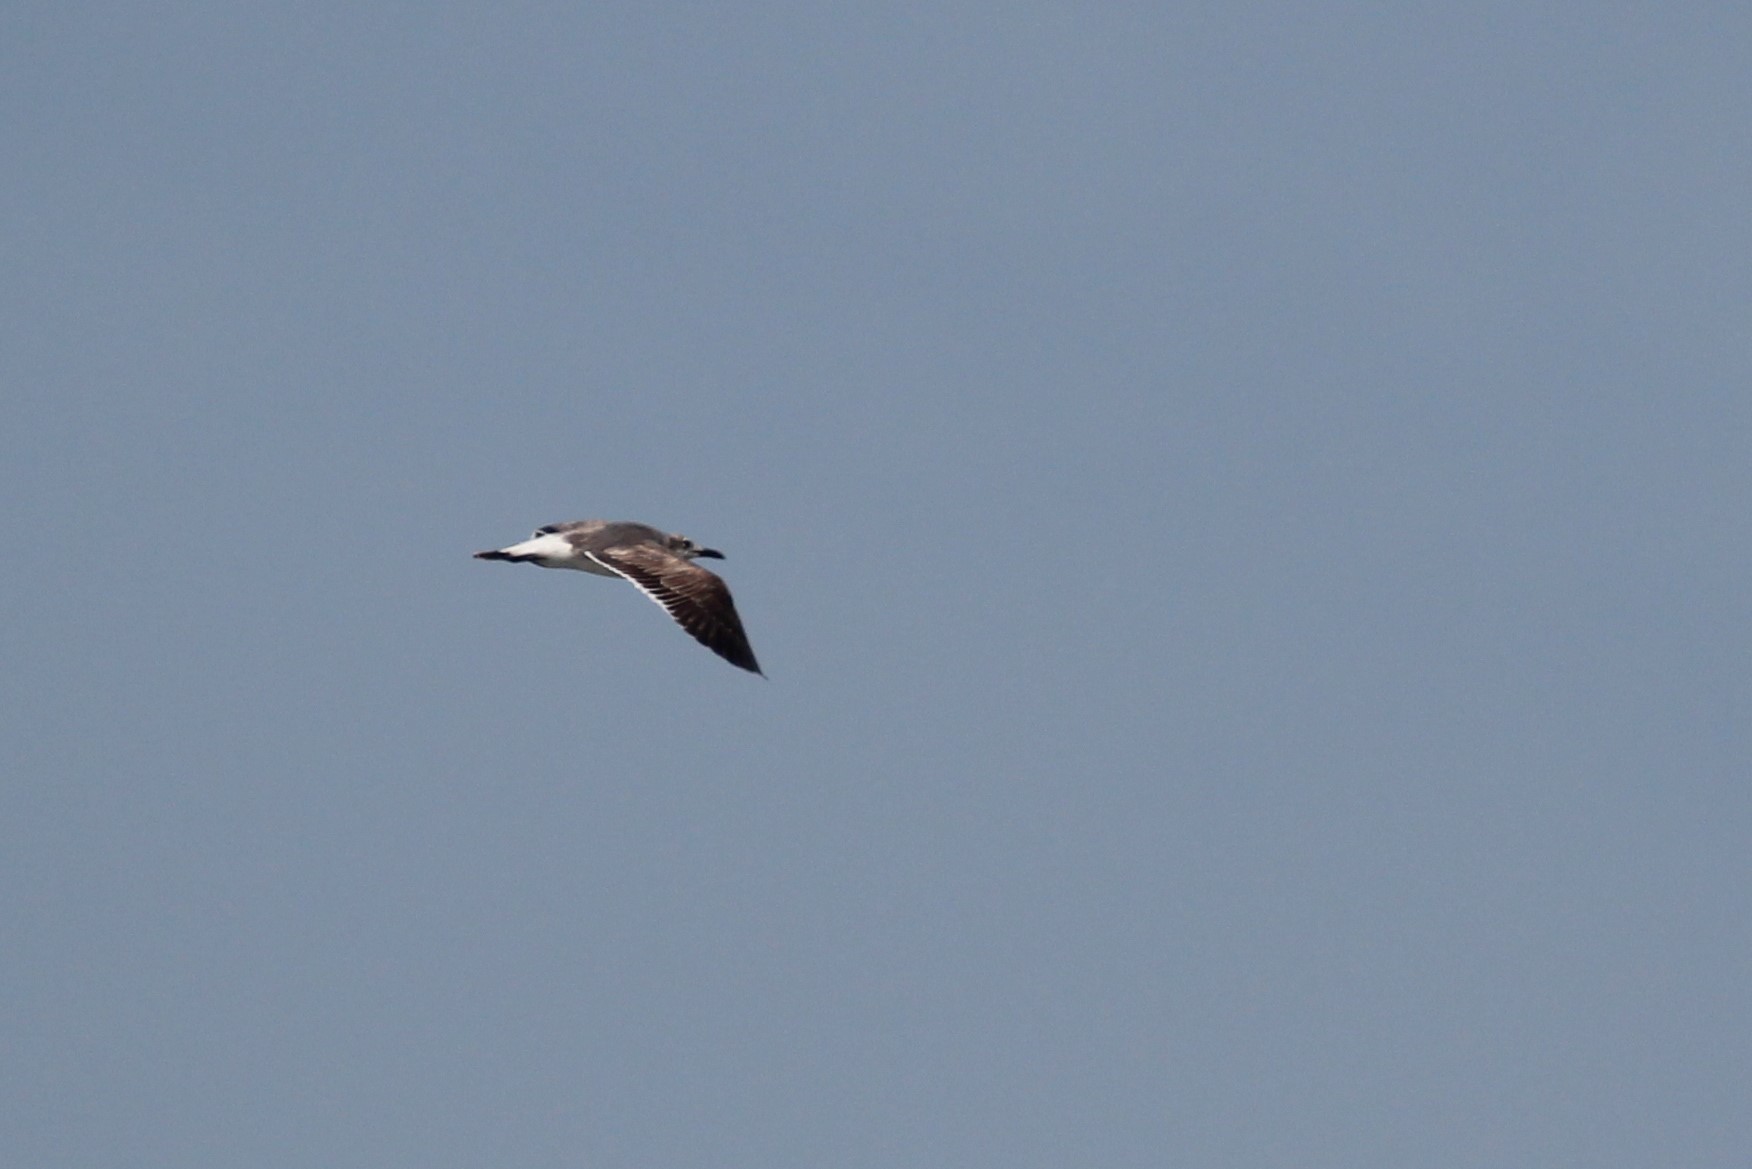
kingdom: Animalia
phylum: Chordata
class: Aves
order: Charadriiformes
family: Laridae
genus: Leucophaeus
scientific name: Leucophaeus atricilla
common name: Laughing gull
